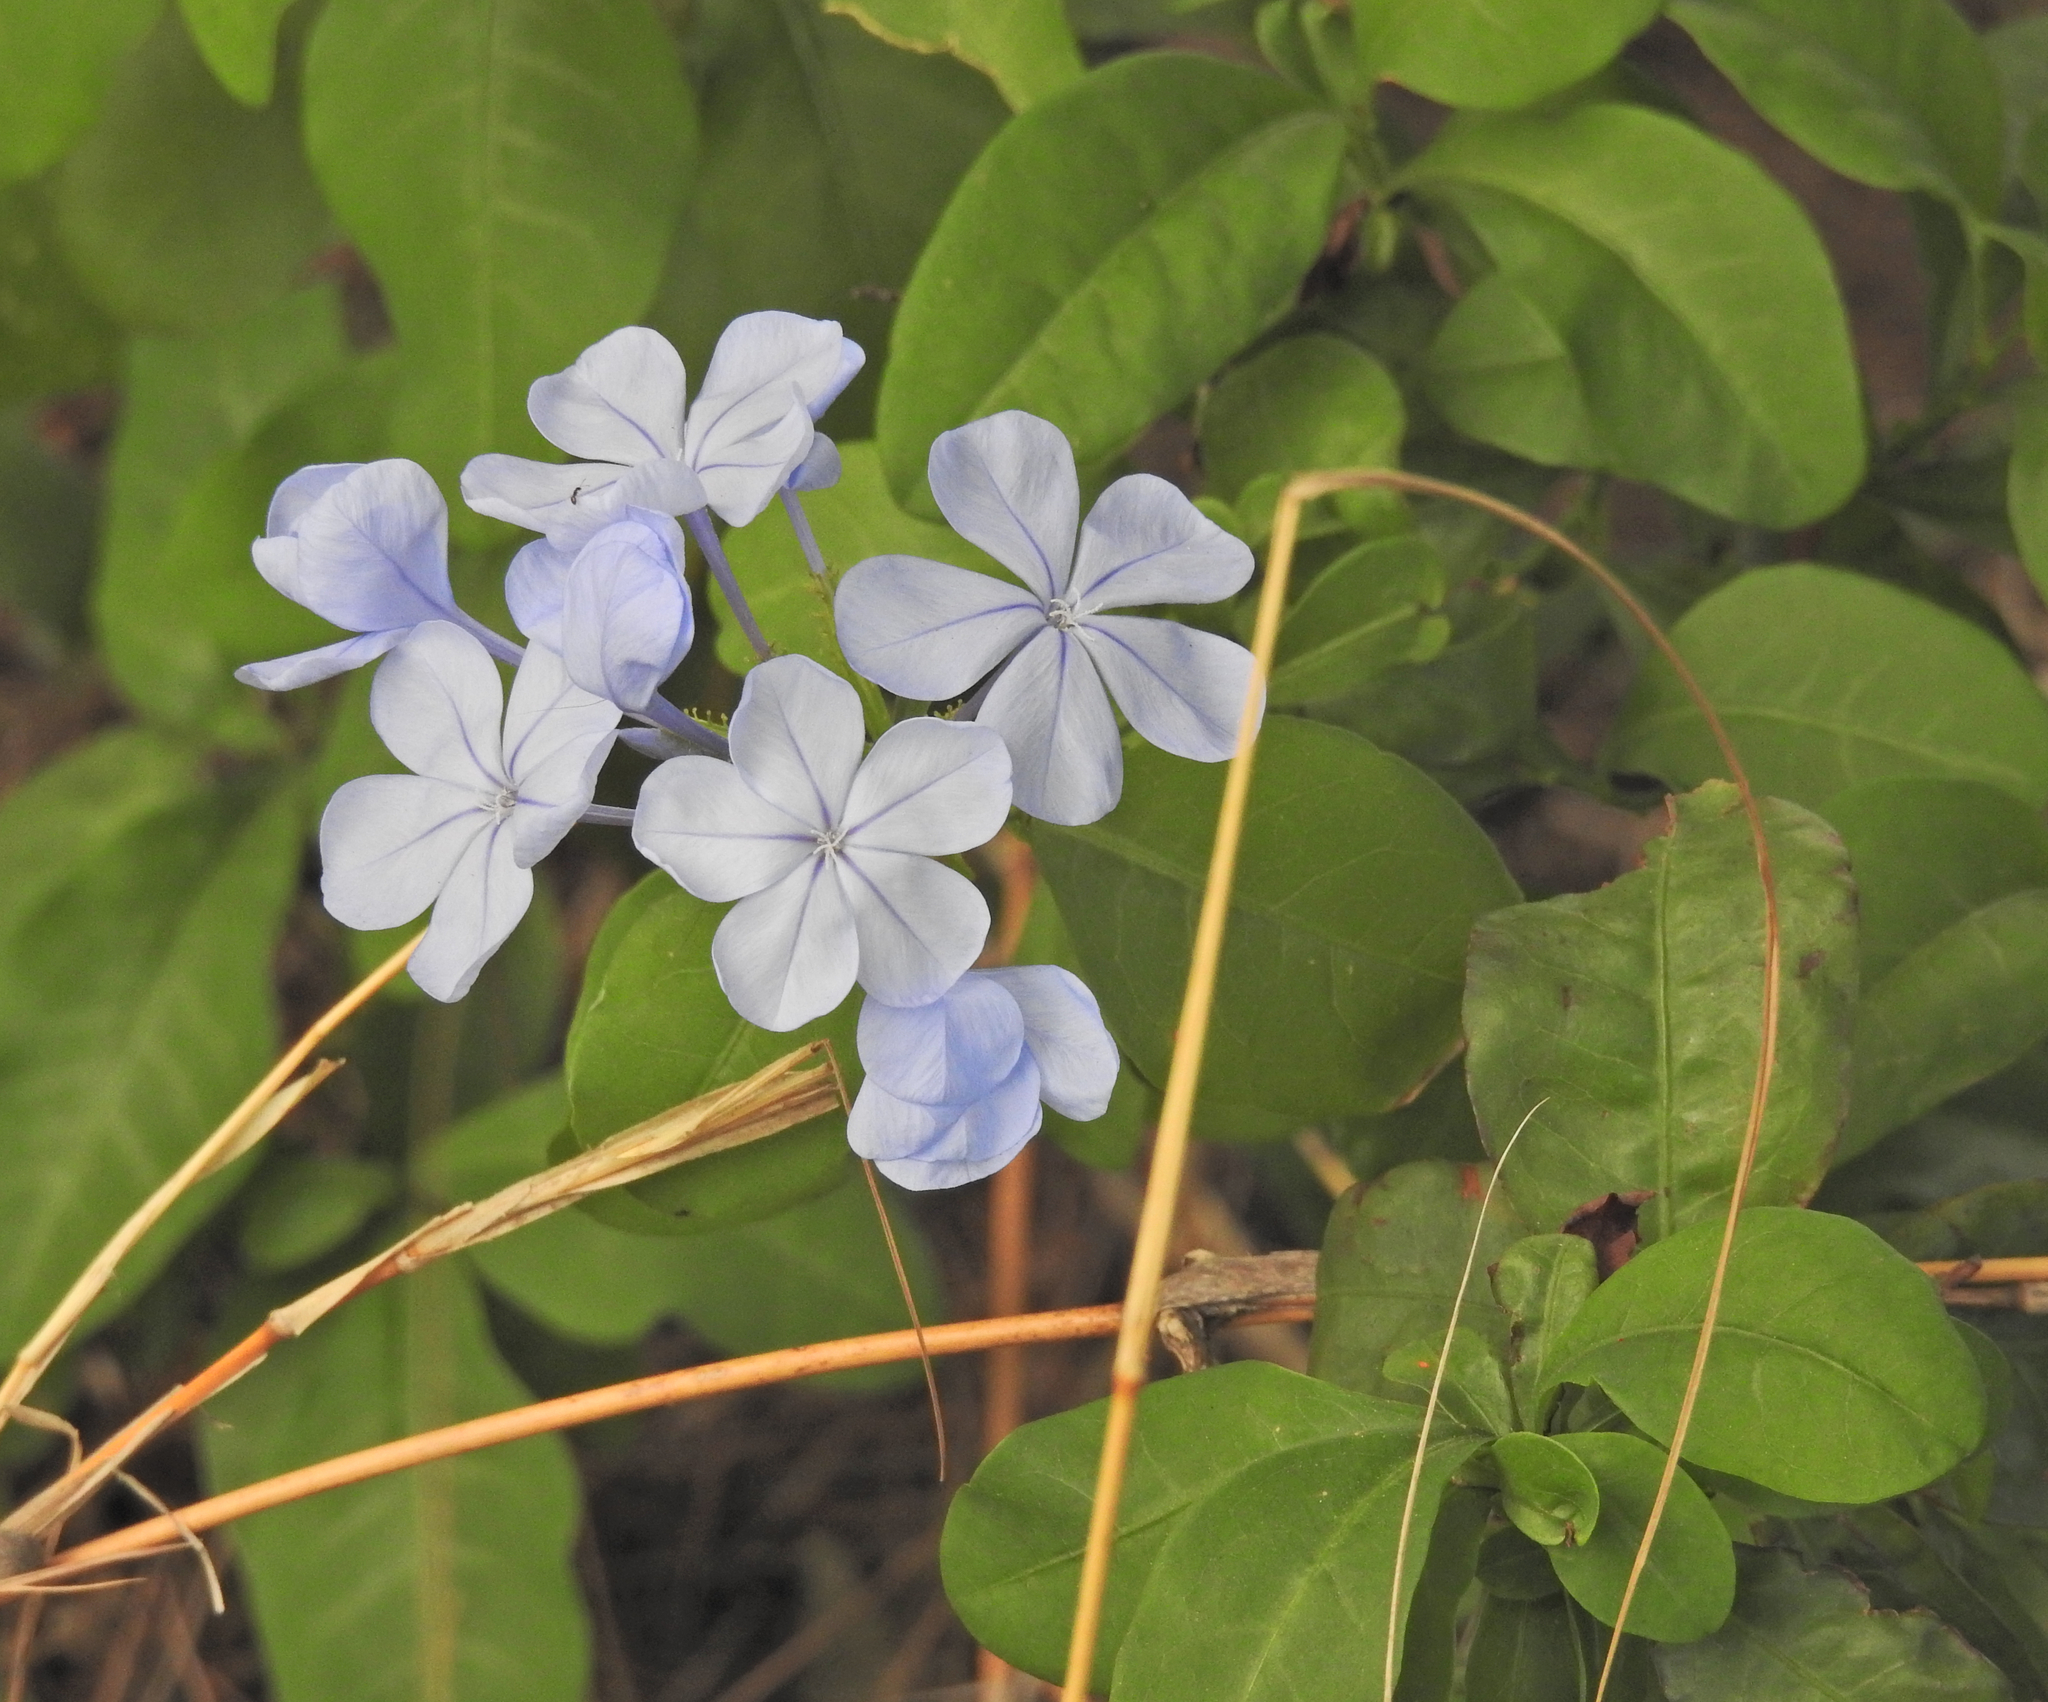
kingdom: Plantae
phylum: Tracheophyta
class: Magnoliopsida
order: Caryophyllales
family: Plumbaginaceae
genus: Plumbago
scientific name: Plumbago auriculata
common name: Cape leadwort
